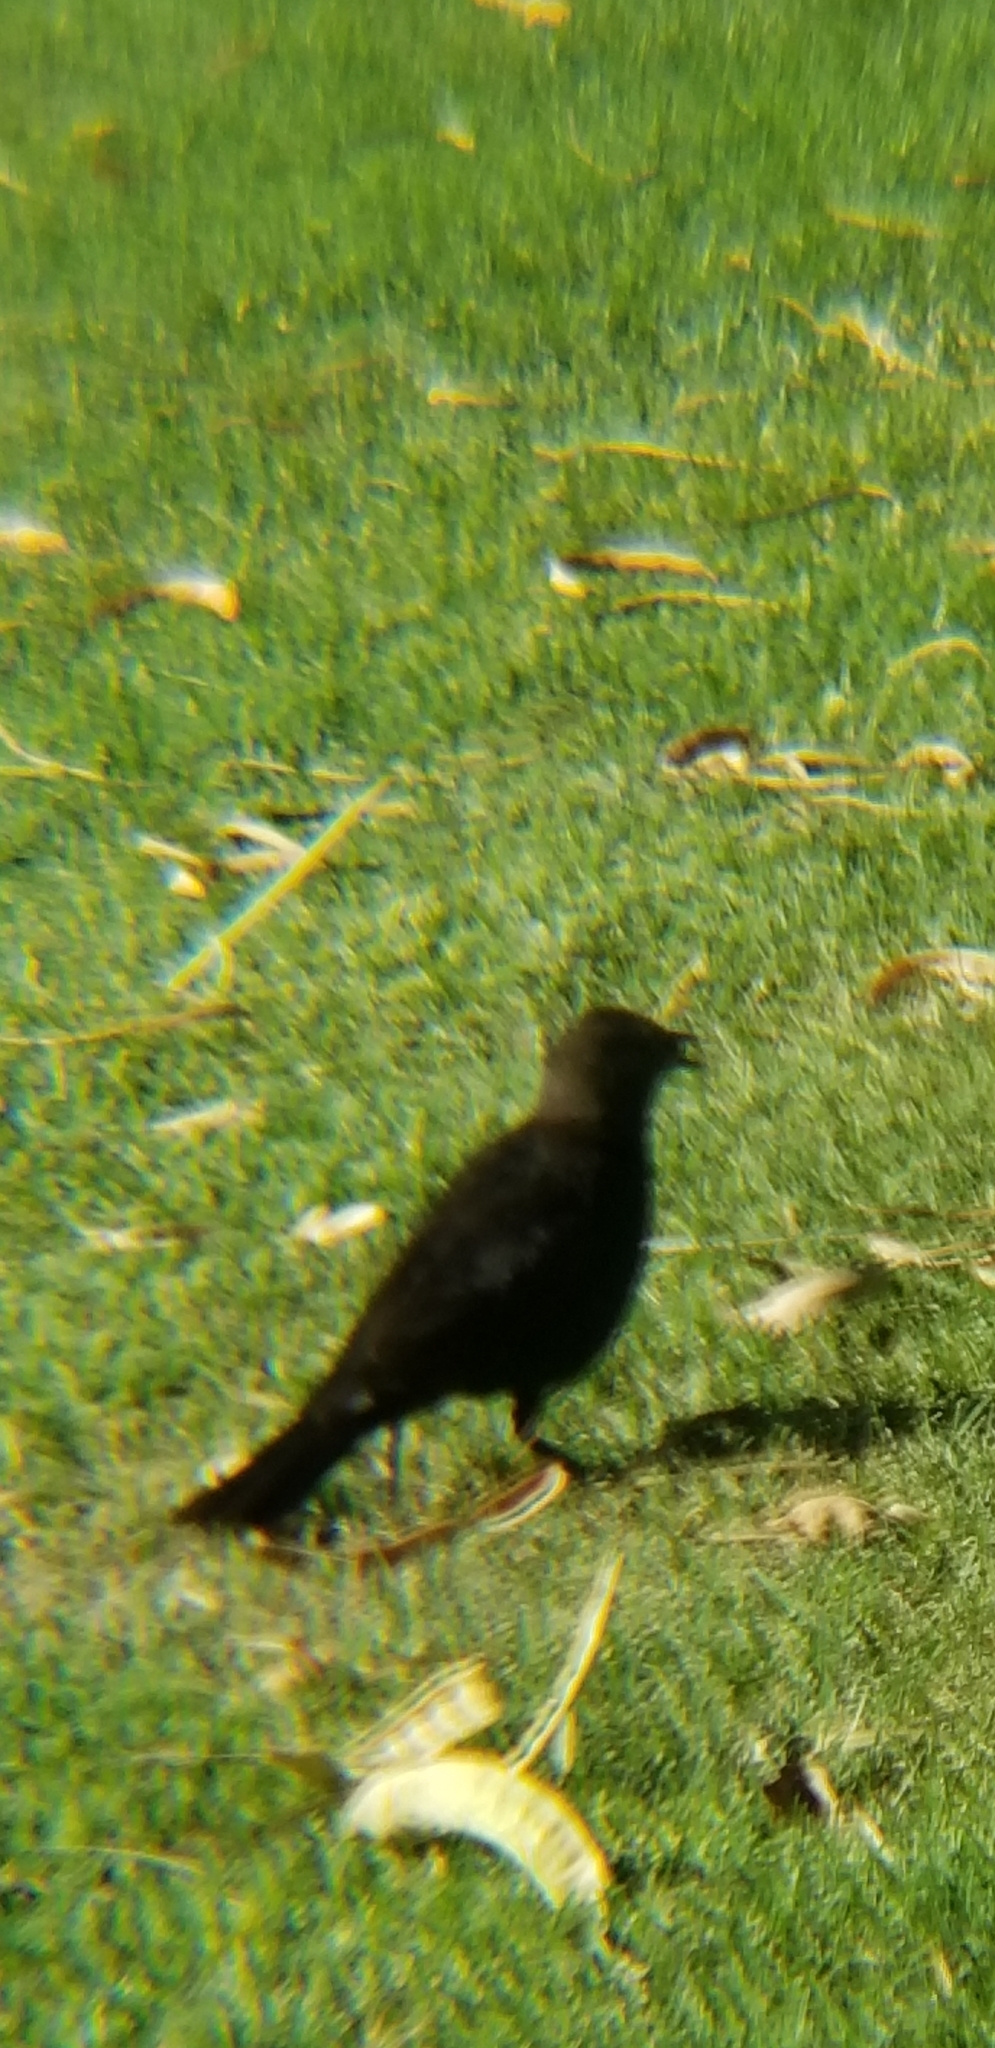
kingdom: Animalia
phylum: Chordata
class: Aves
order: Passeriformes
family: Icteridae
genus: Molothrus
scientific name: Molothrus ater
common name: Brown-headed cowbird
